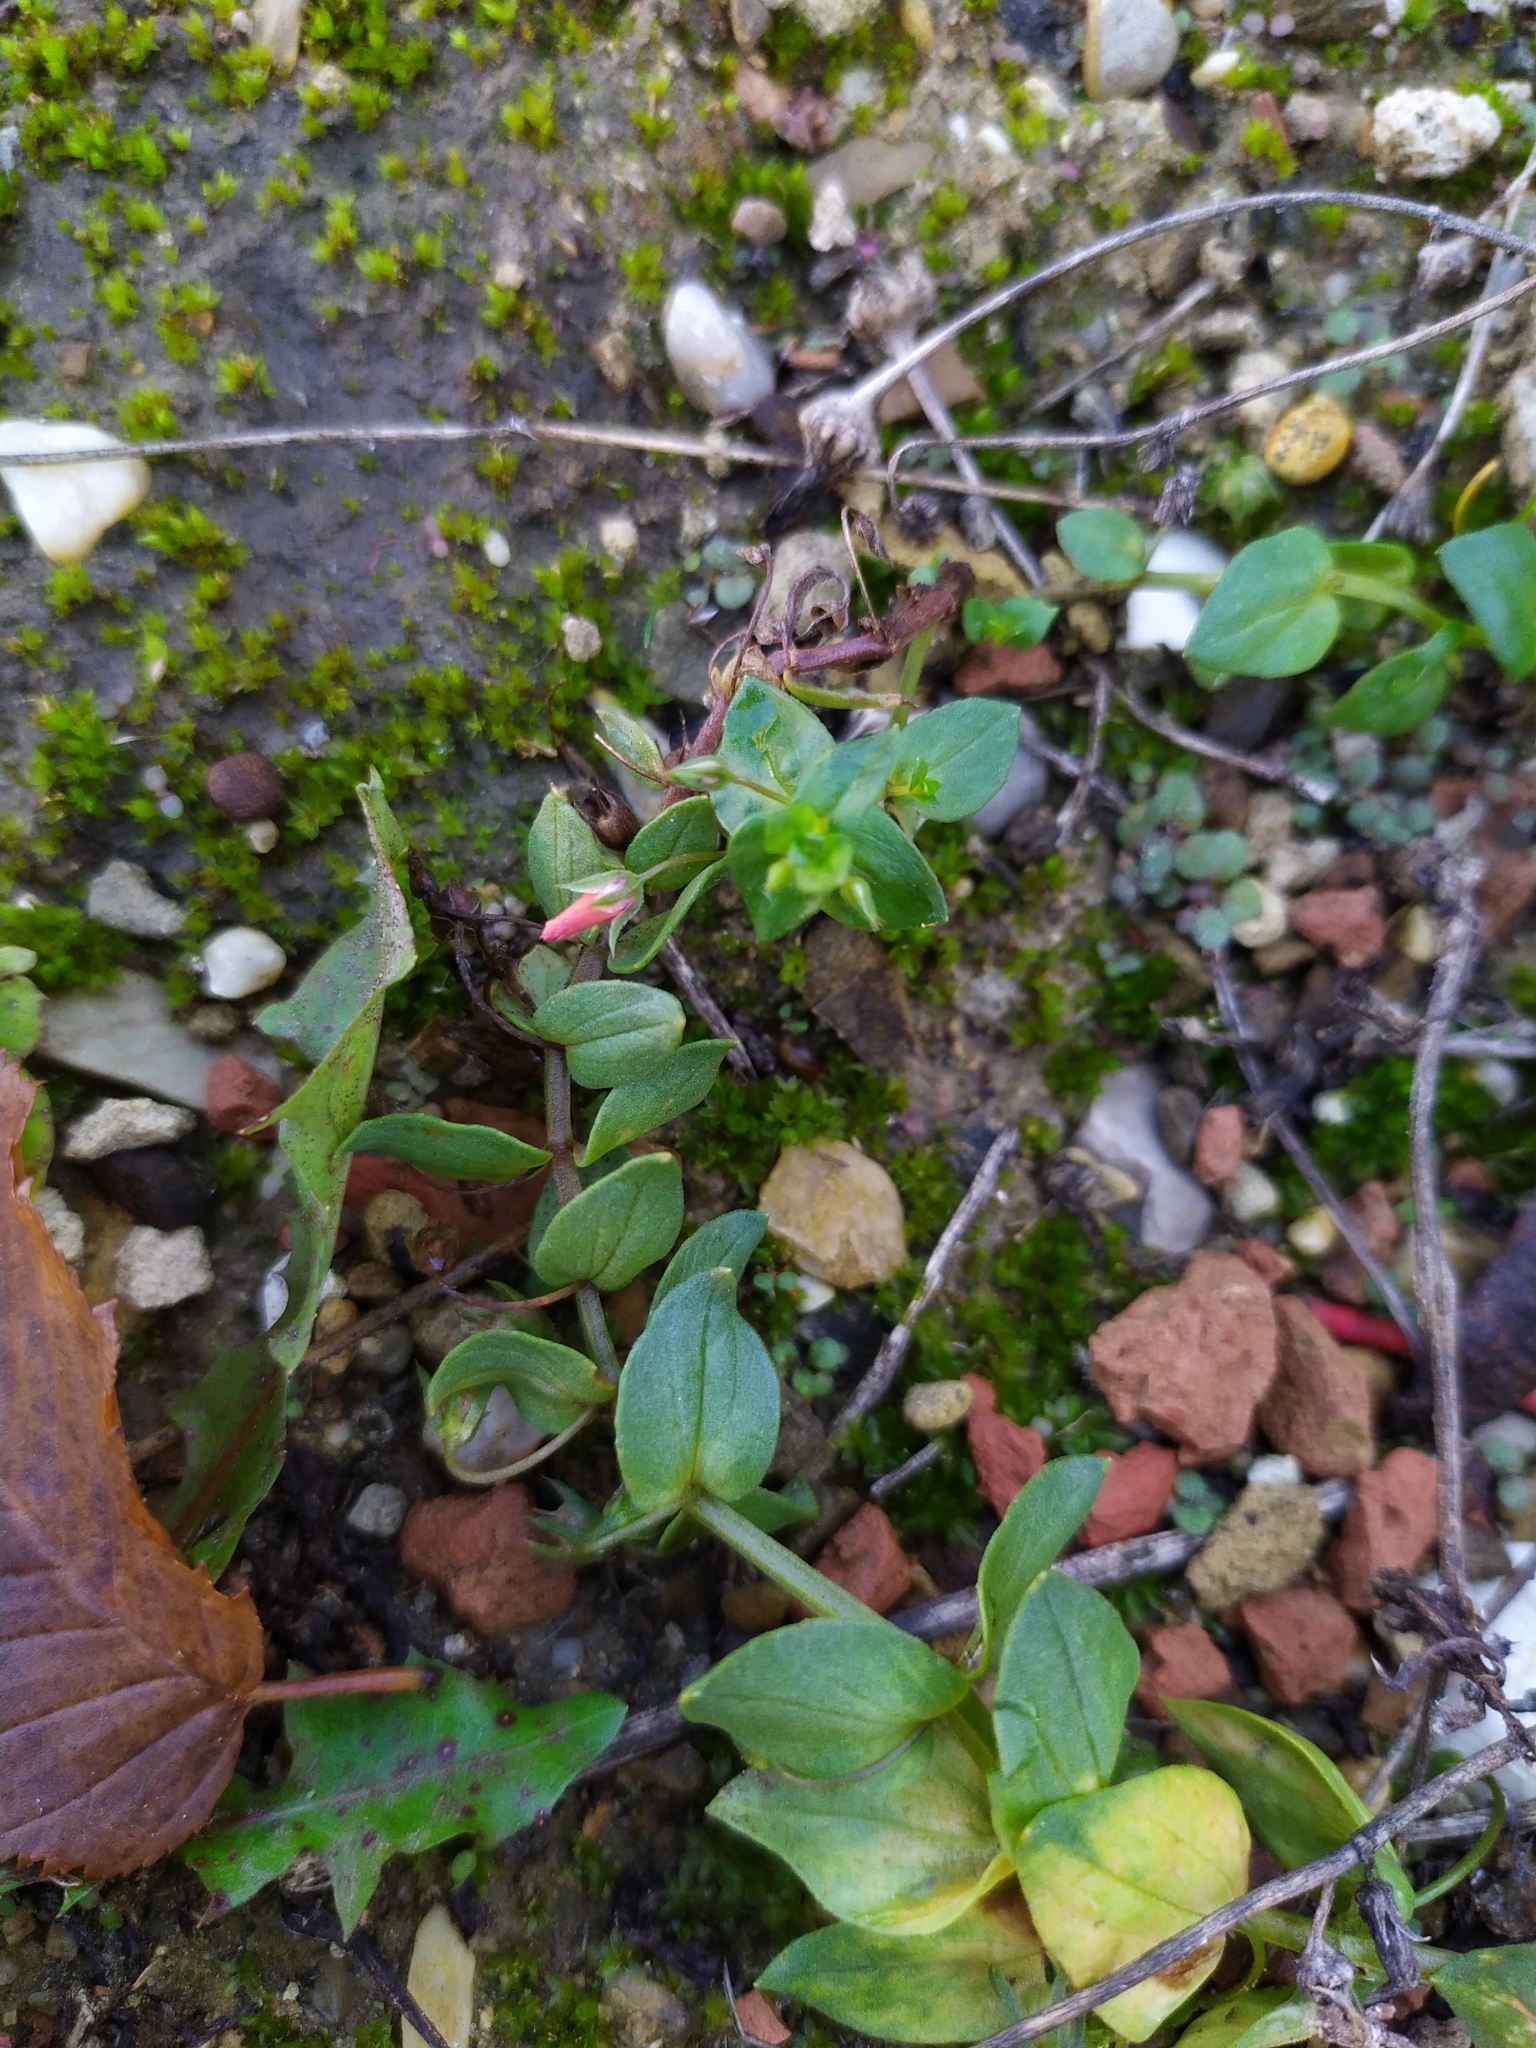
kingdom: Plantae
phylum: Tracheophyta
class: Magnoliopsida
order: Ericales
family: Primulaceae
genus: Lysimachia
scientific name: Lysimachia arvensis
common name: Scarlet pimpernel
